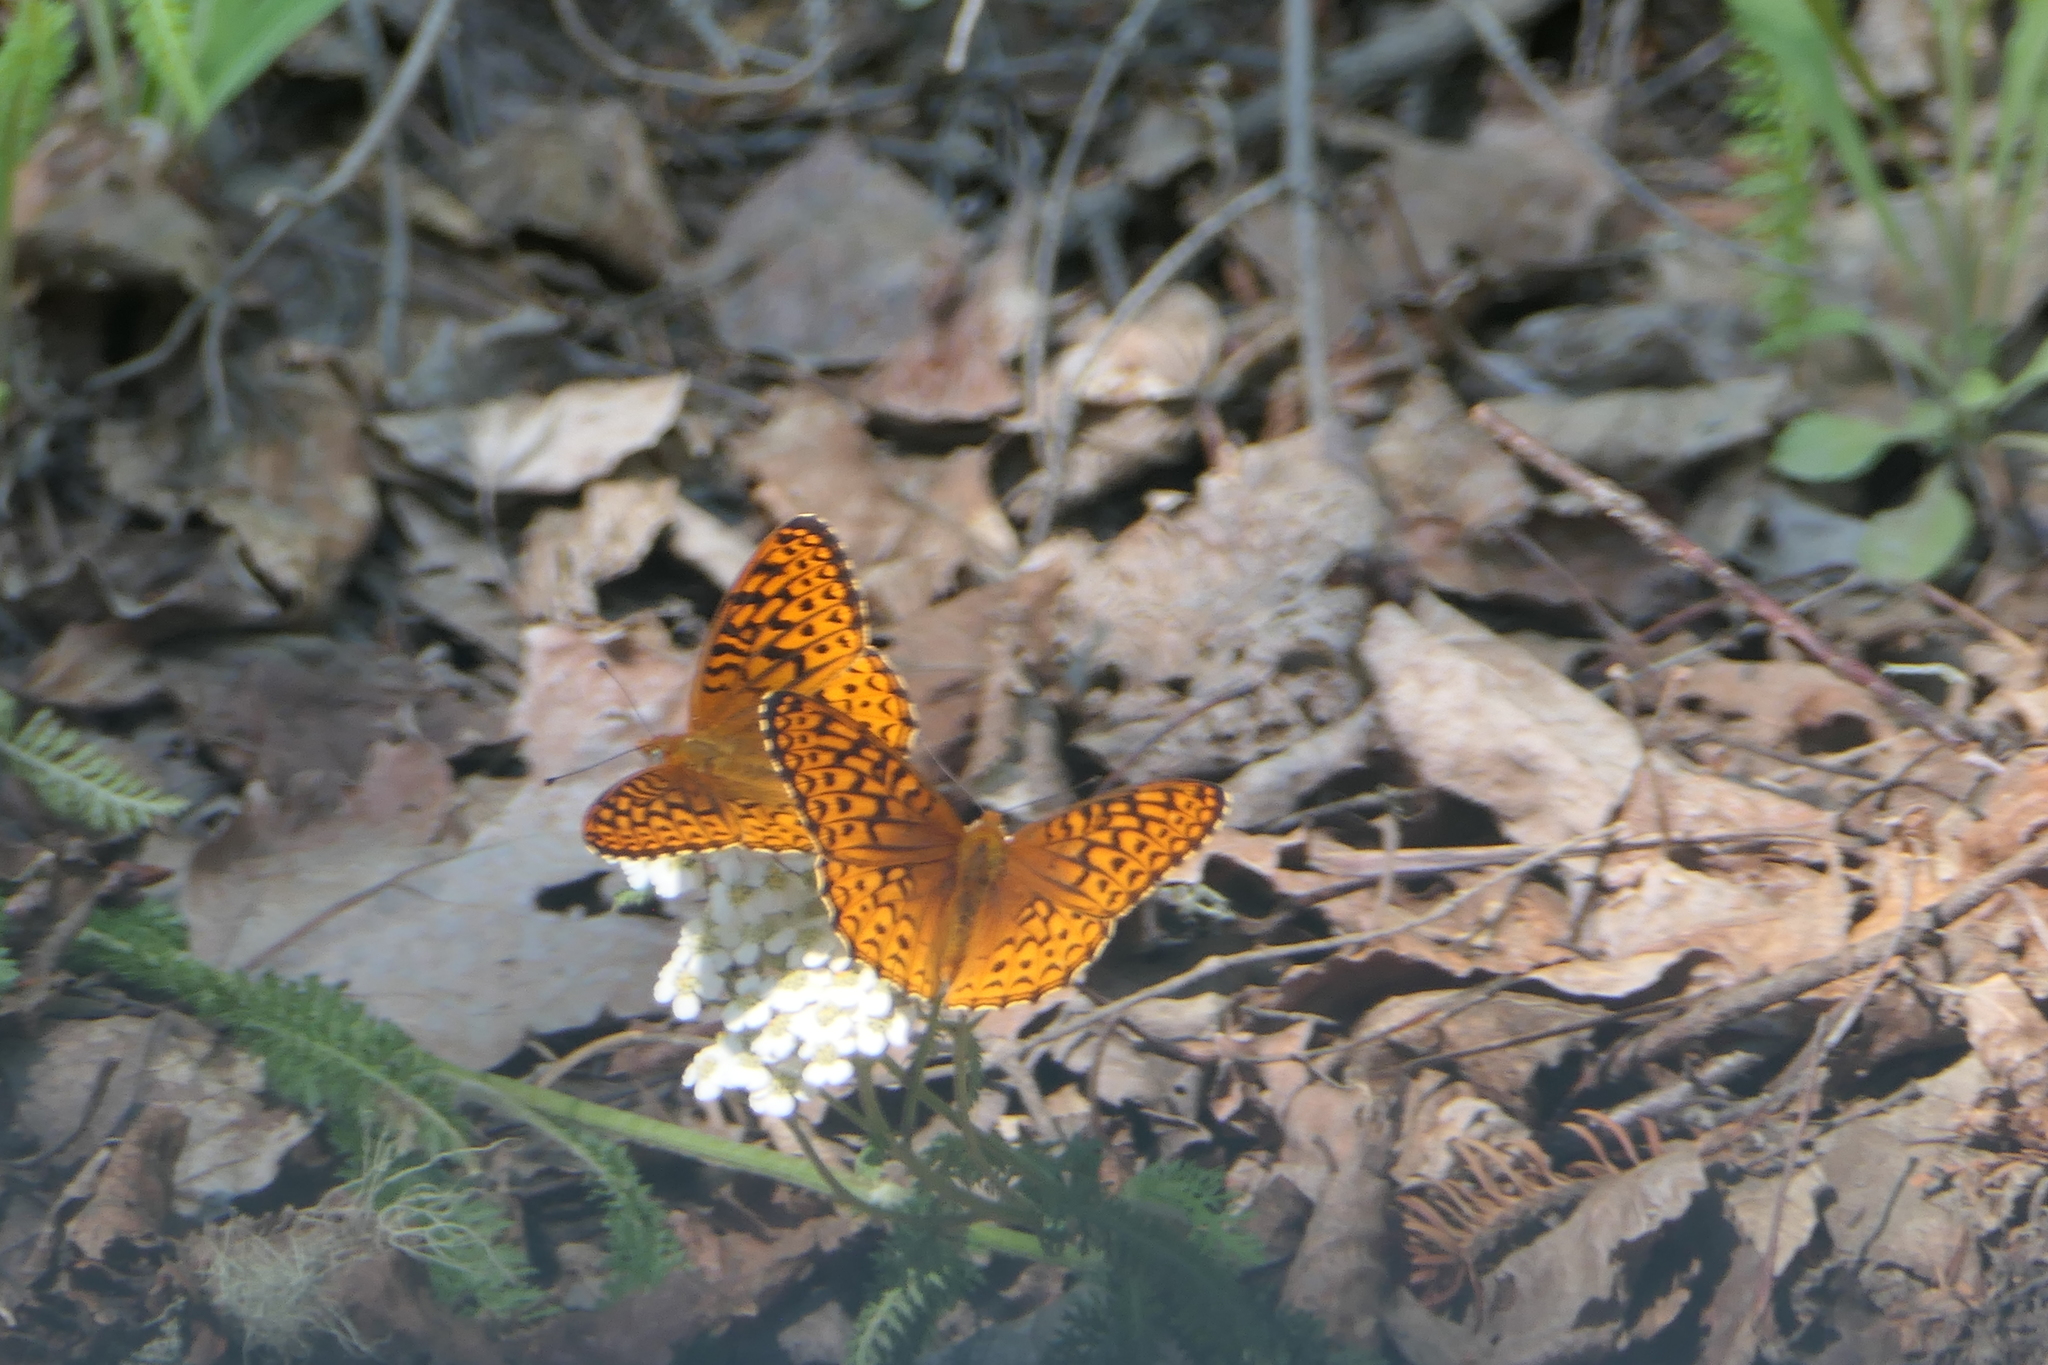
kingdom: Animalia
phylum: Arthropoda
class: Insecta
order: Lepidoptera
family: Nymphalidae
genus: Speyeria
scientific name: Speyeria atlantis
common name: Atlantis fritillary
